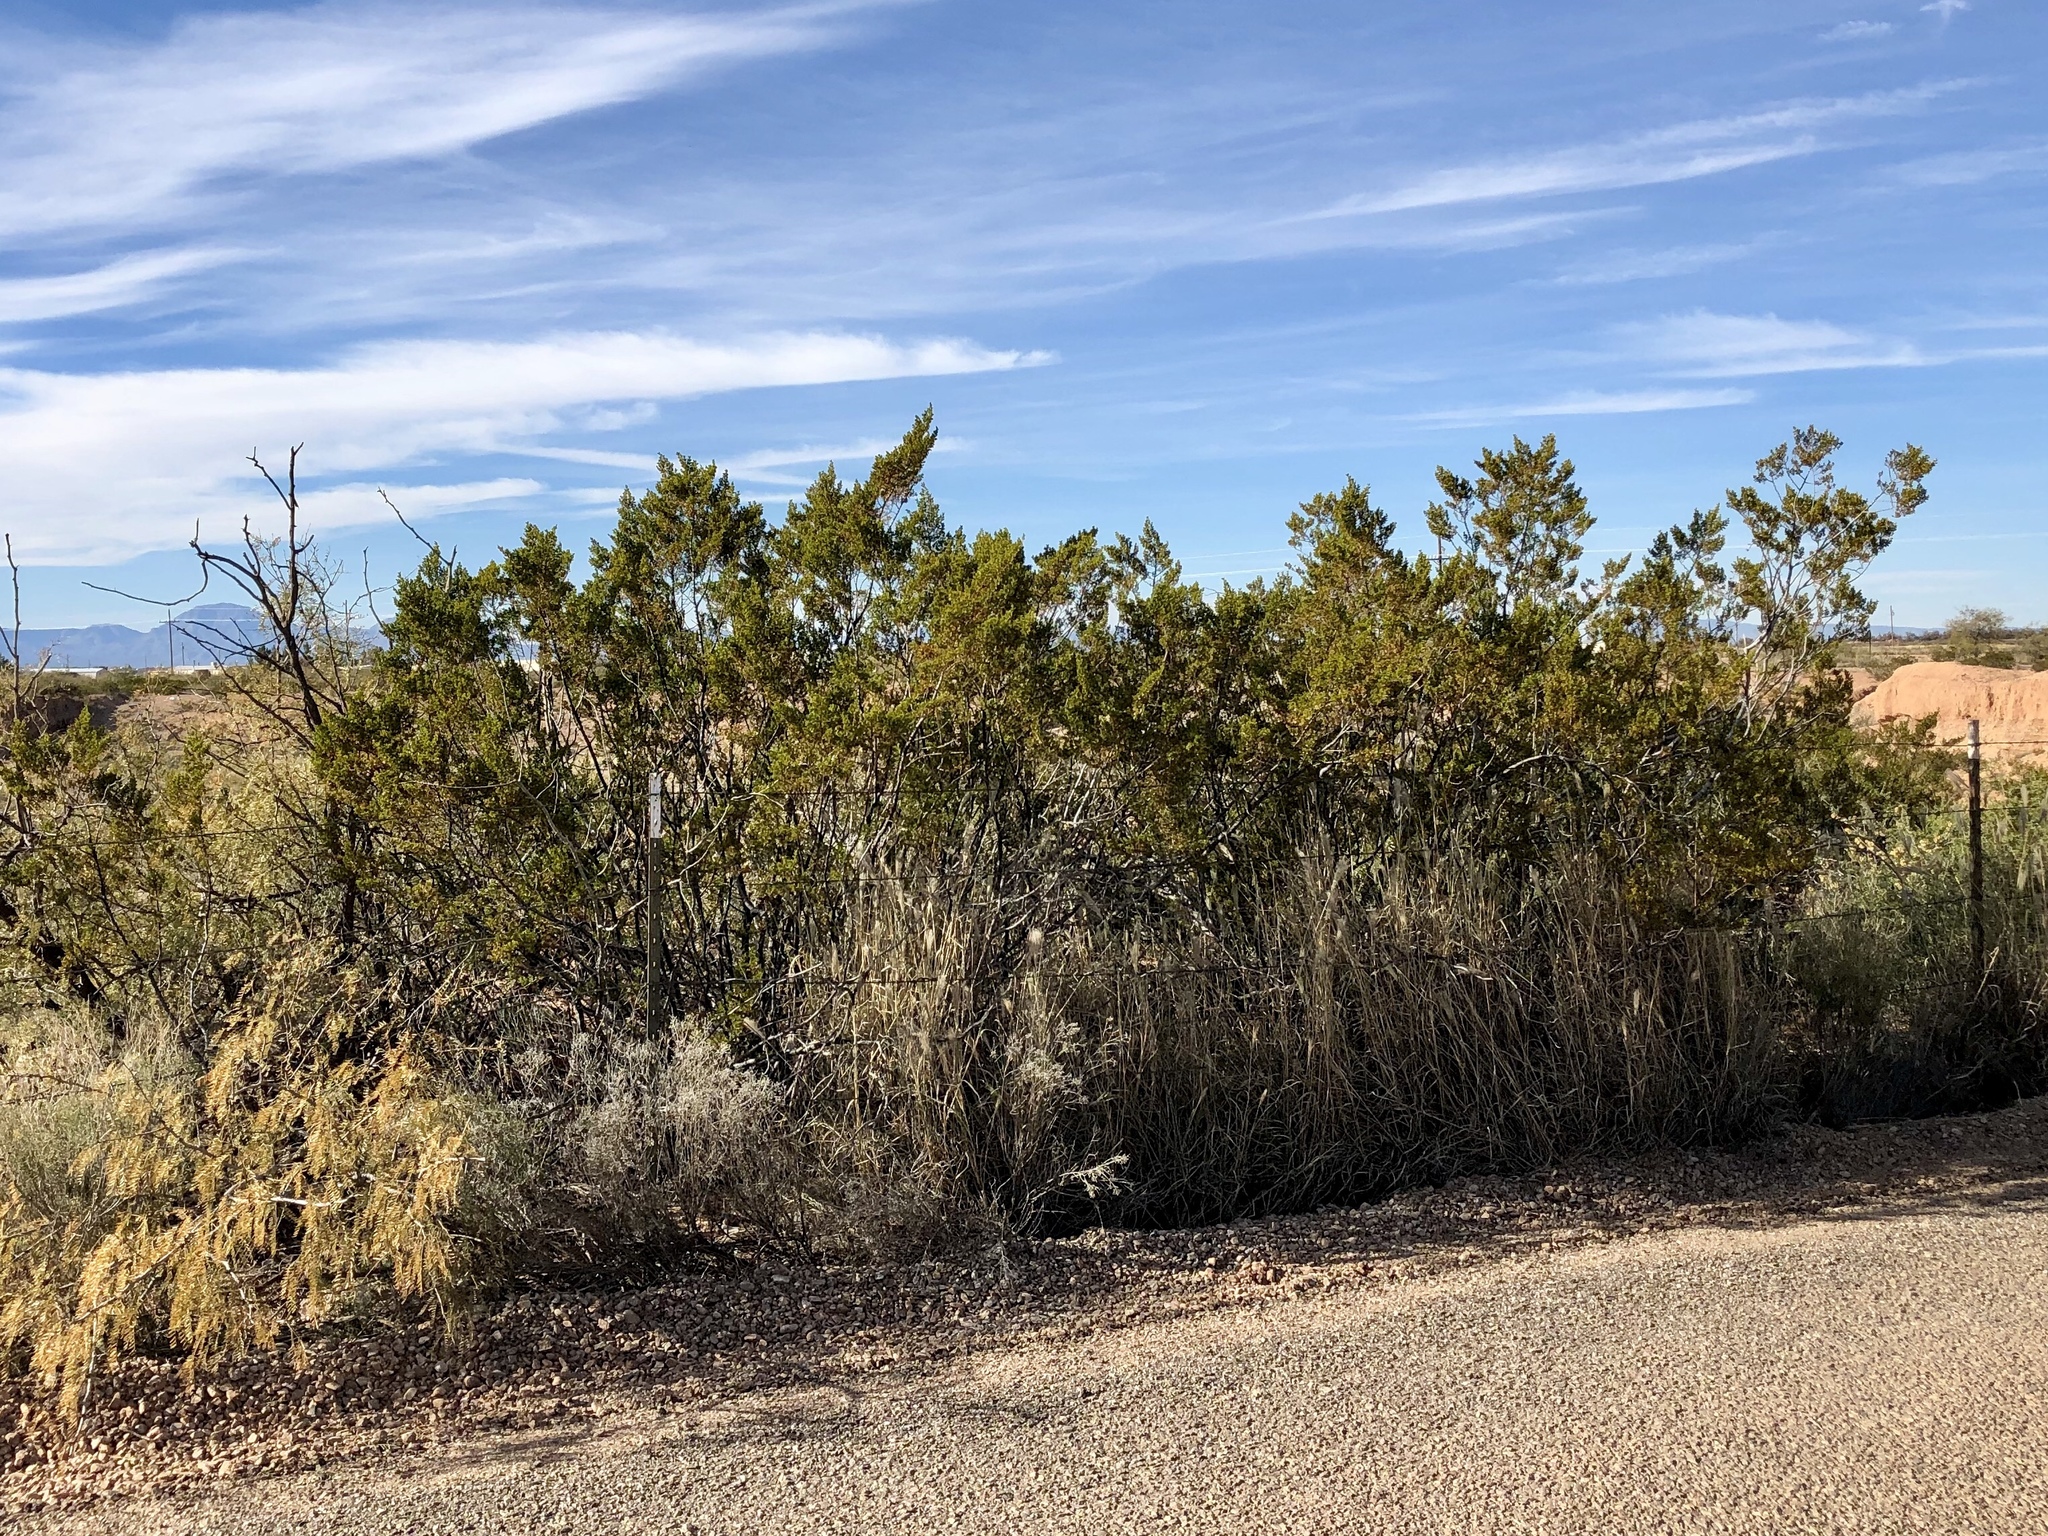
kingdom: Plantae
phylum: Tracheophyta
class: Magnoliopsida
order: Zygophyllales
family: Zygophyllaceae
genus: Larrea
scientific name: Larrea tridentata
